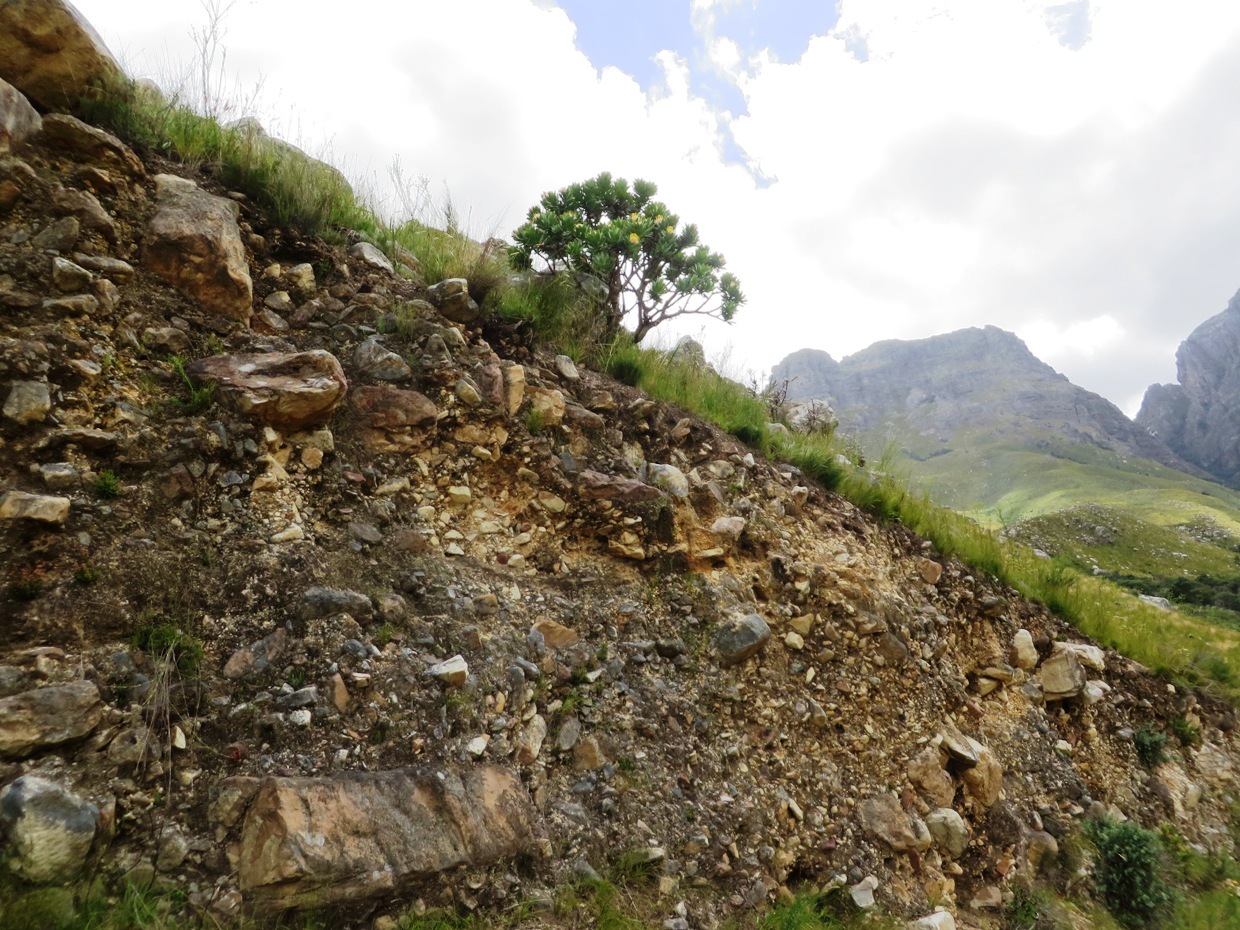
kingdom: Plantae
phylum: Tracheophyta
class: Magnoliopsida
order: Proteales
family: Proteaceae
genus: Leucospermum
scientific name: Leucospermum conocarpodendron
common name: Tree pincushion
